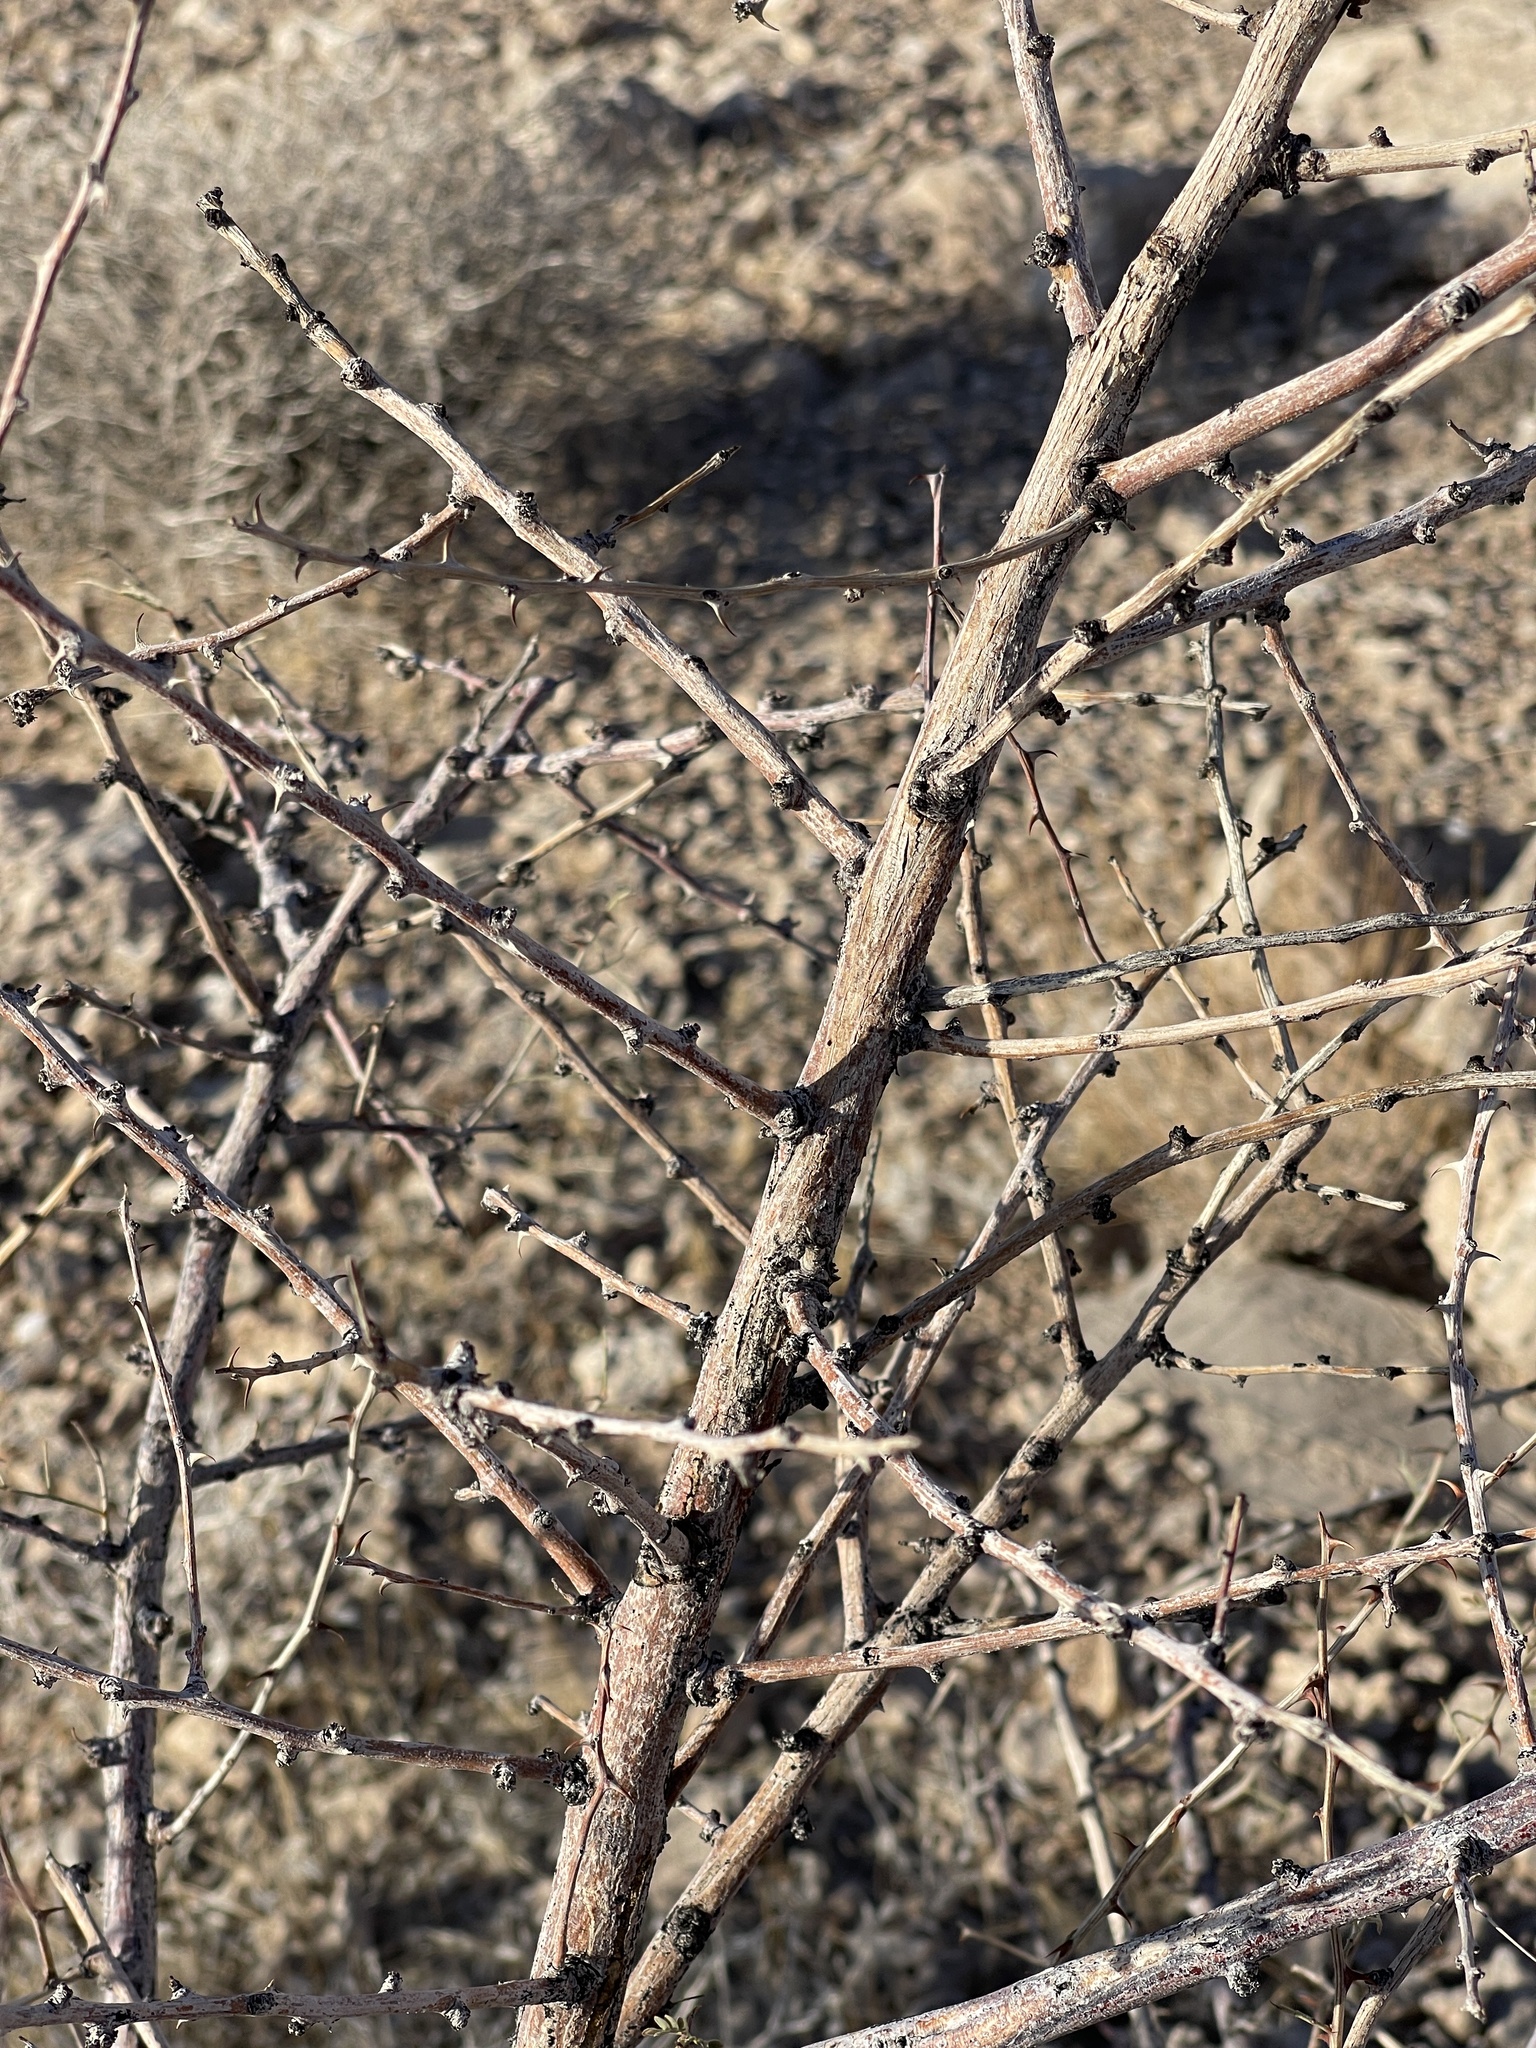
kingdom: Plantae
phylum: Tracheophyta
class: Magnoliopsida
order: Fabales
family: Fabaceae
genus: Senegalia
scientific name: Senegalia greggii
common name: Texas-mimosa
